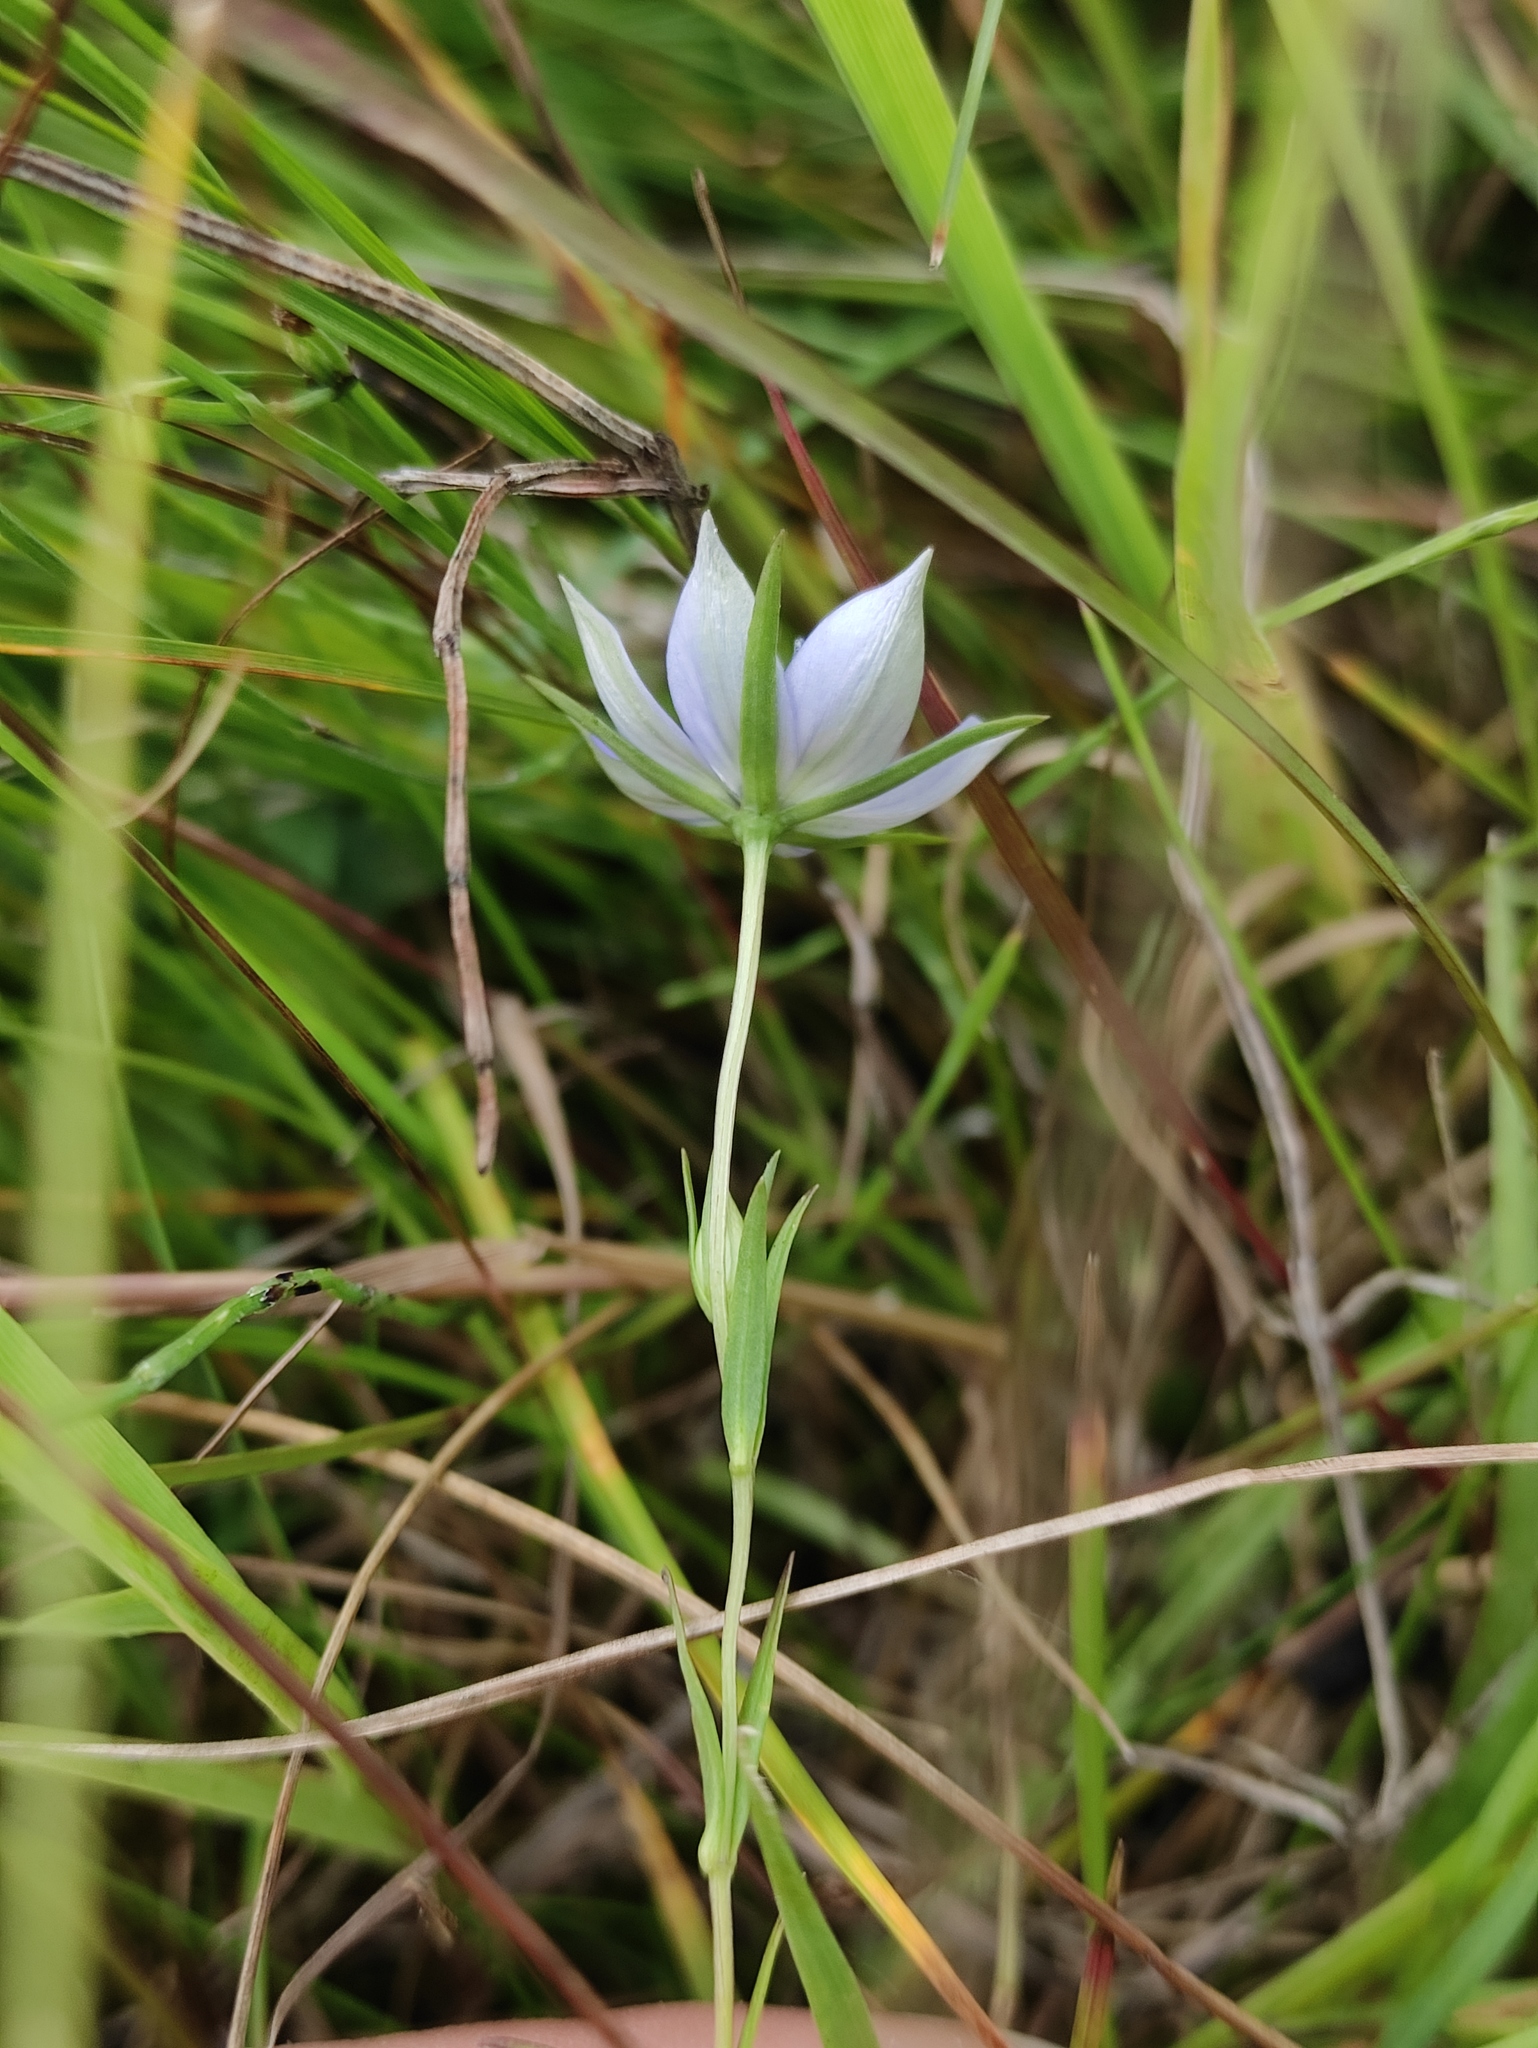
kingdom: Plantae
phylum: Tracheophyta
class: Magnoliopsida
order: Gentianales
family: Gentianaceae
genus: Lomatogonium
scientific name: Lomatogonium rotatum
